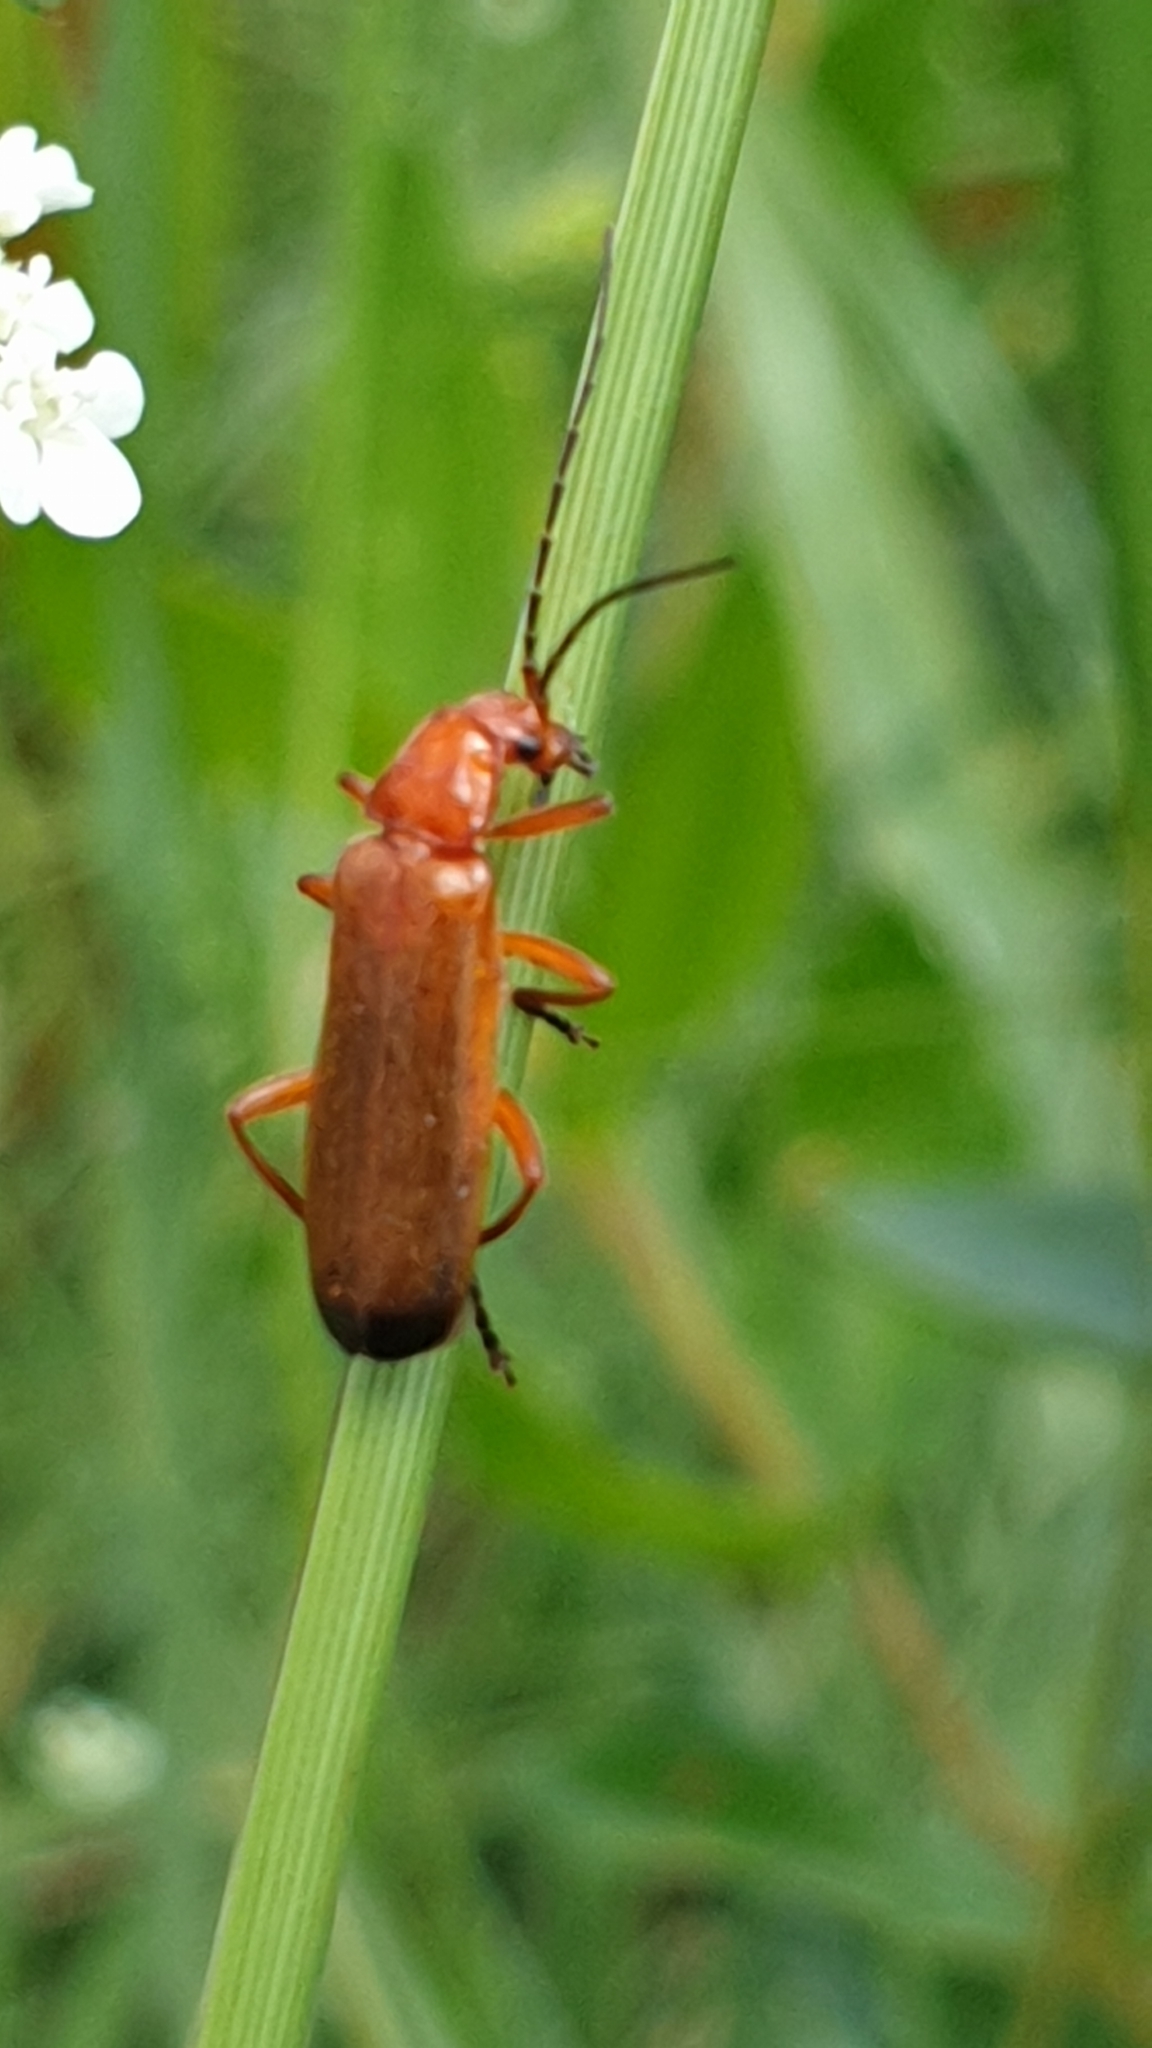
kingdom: Animalia
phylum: Arthropoda
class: Insecta
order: Coleoptera
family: Cantharidae
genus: Rhagonycha
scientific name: Rhagonycha fulva
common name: Common red soldier beetle
